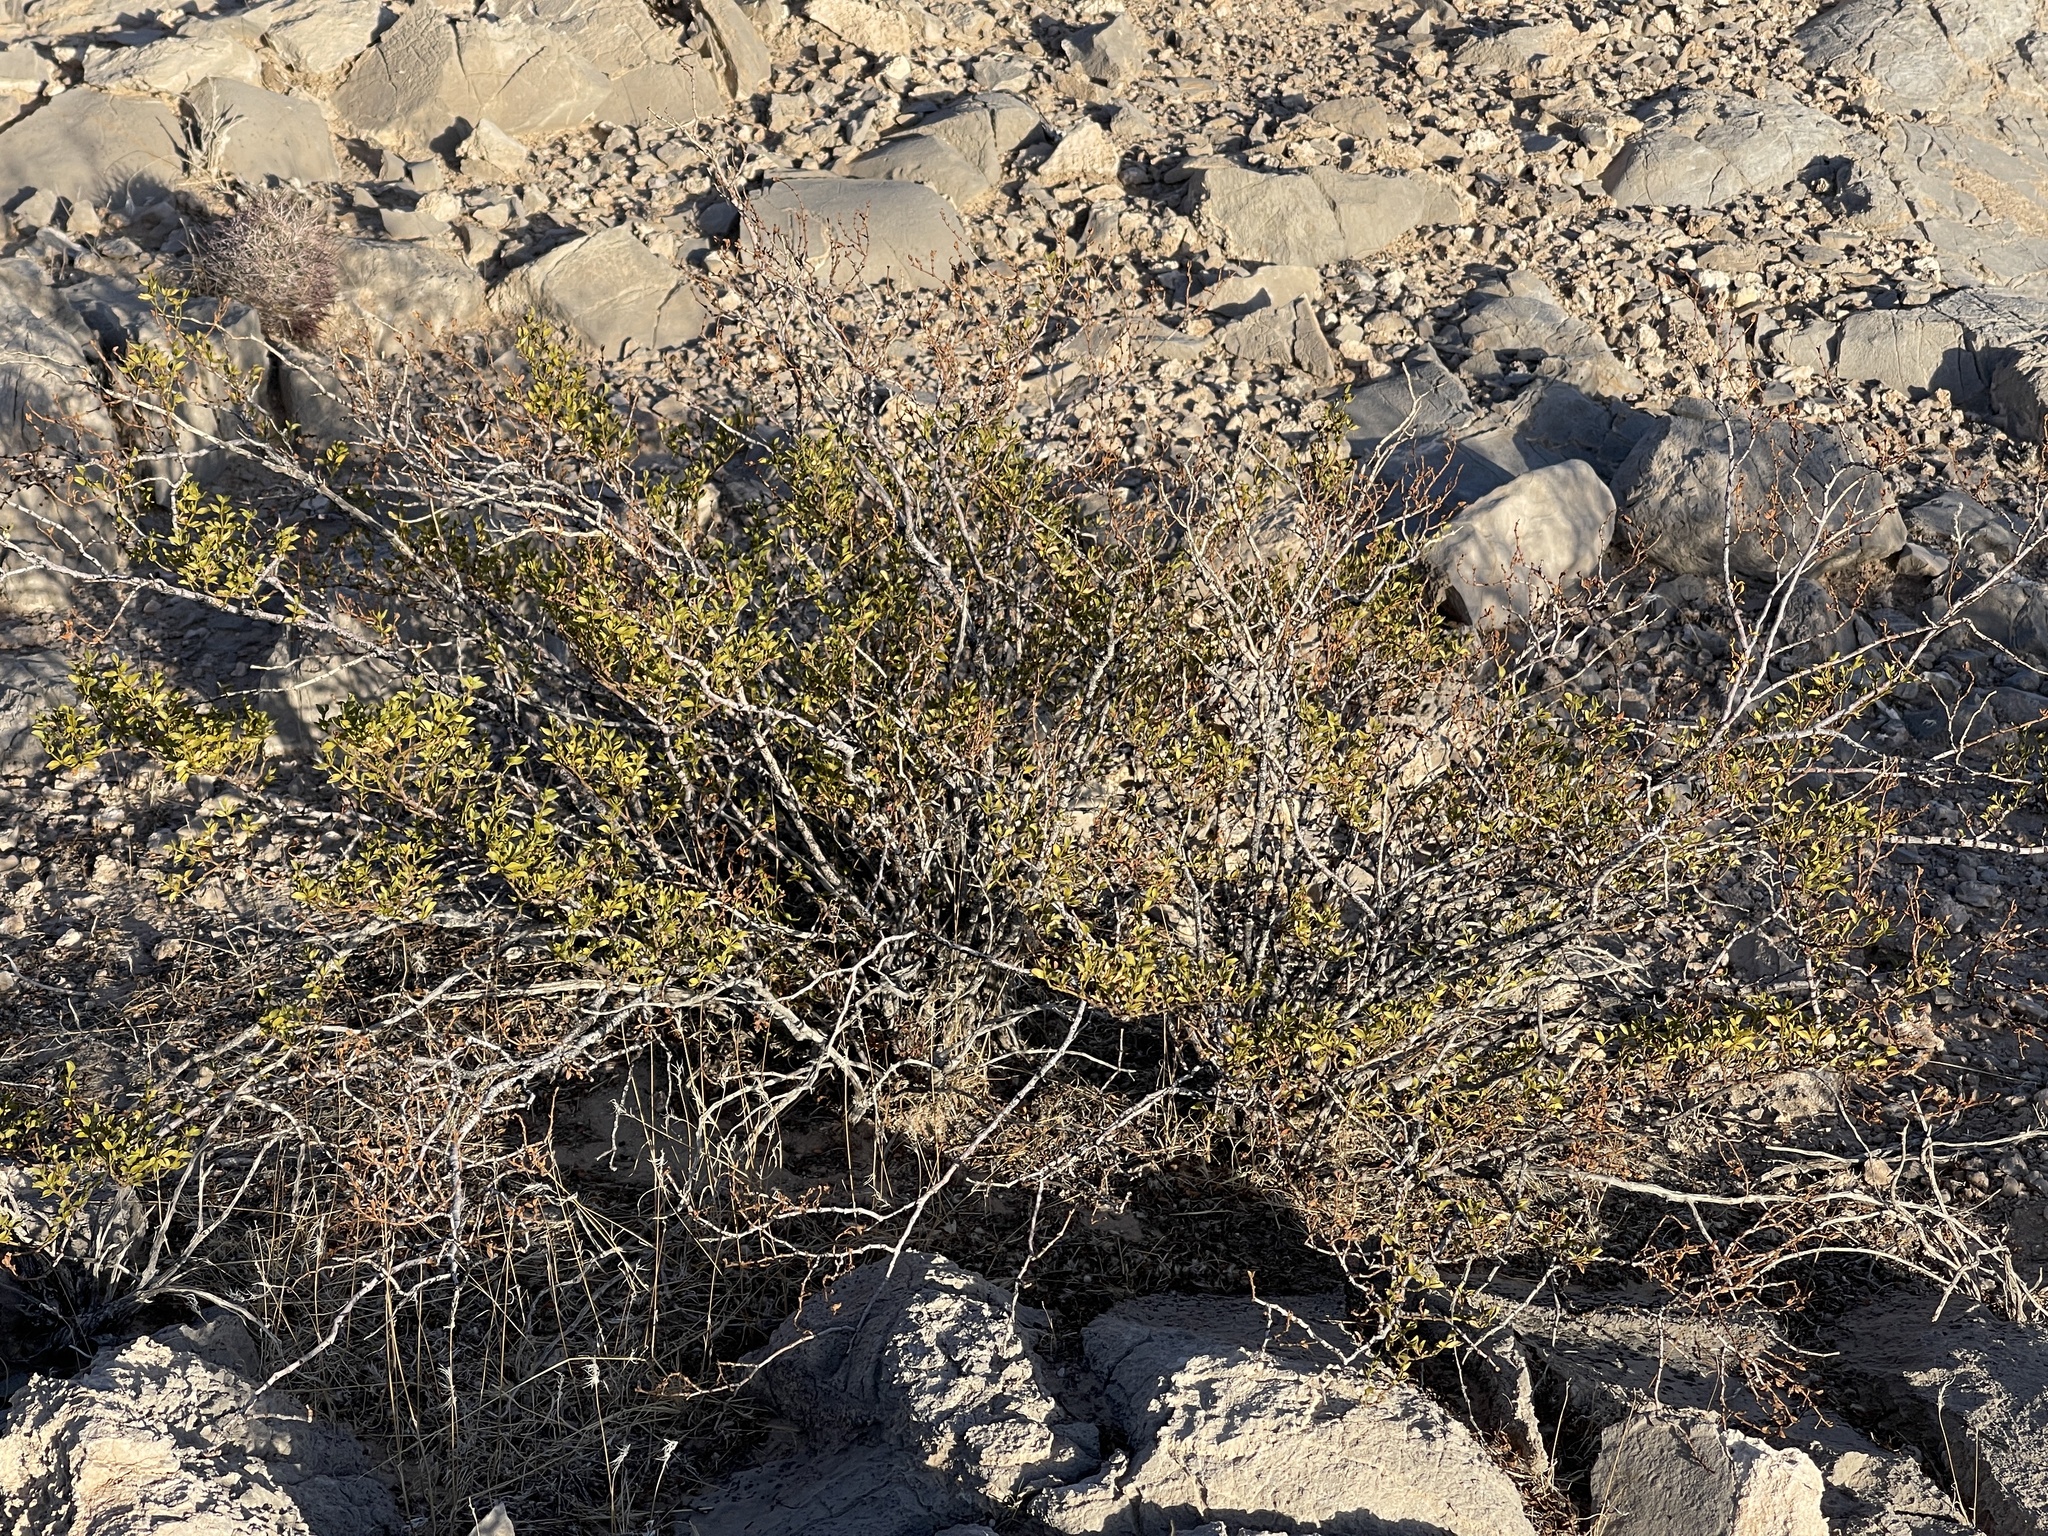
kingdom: Plantae
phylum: Tracheophyta
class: Magnoliopsida
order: Zygophyllales
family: Zygophyllaceae
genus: Larrea
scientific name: Larrea tridentata
